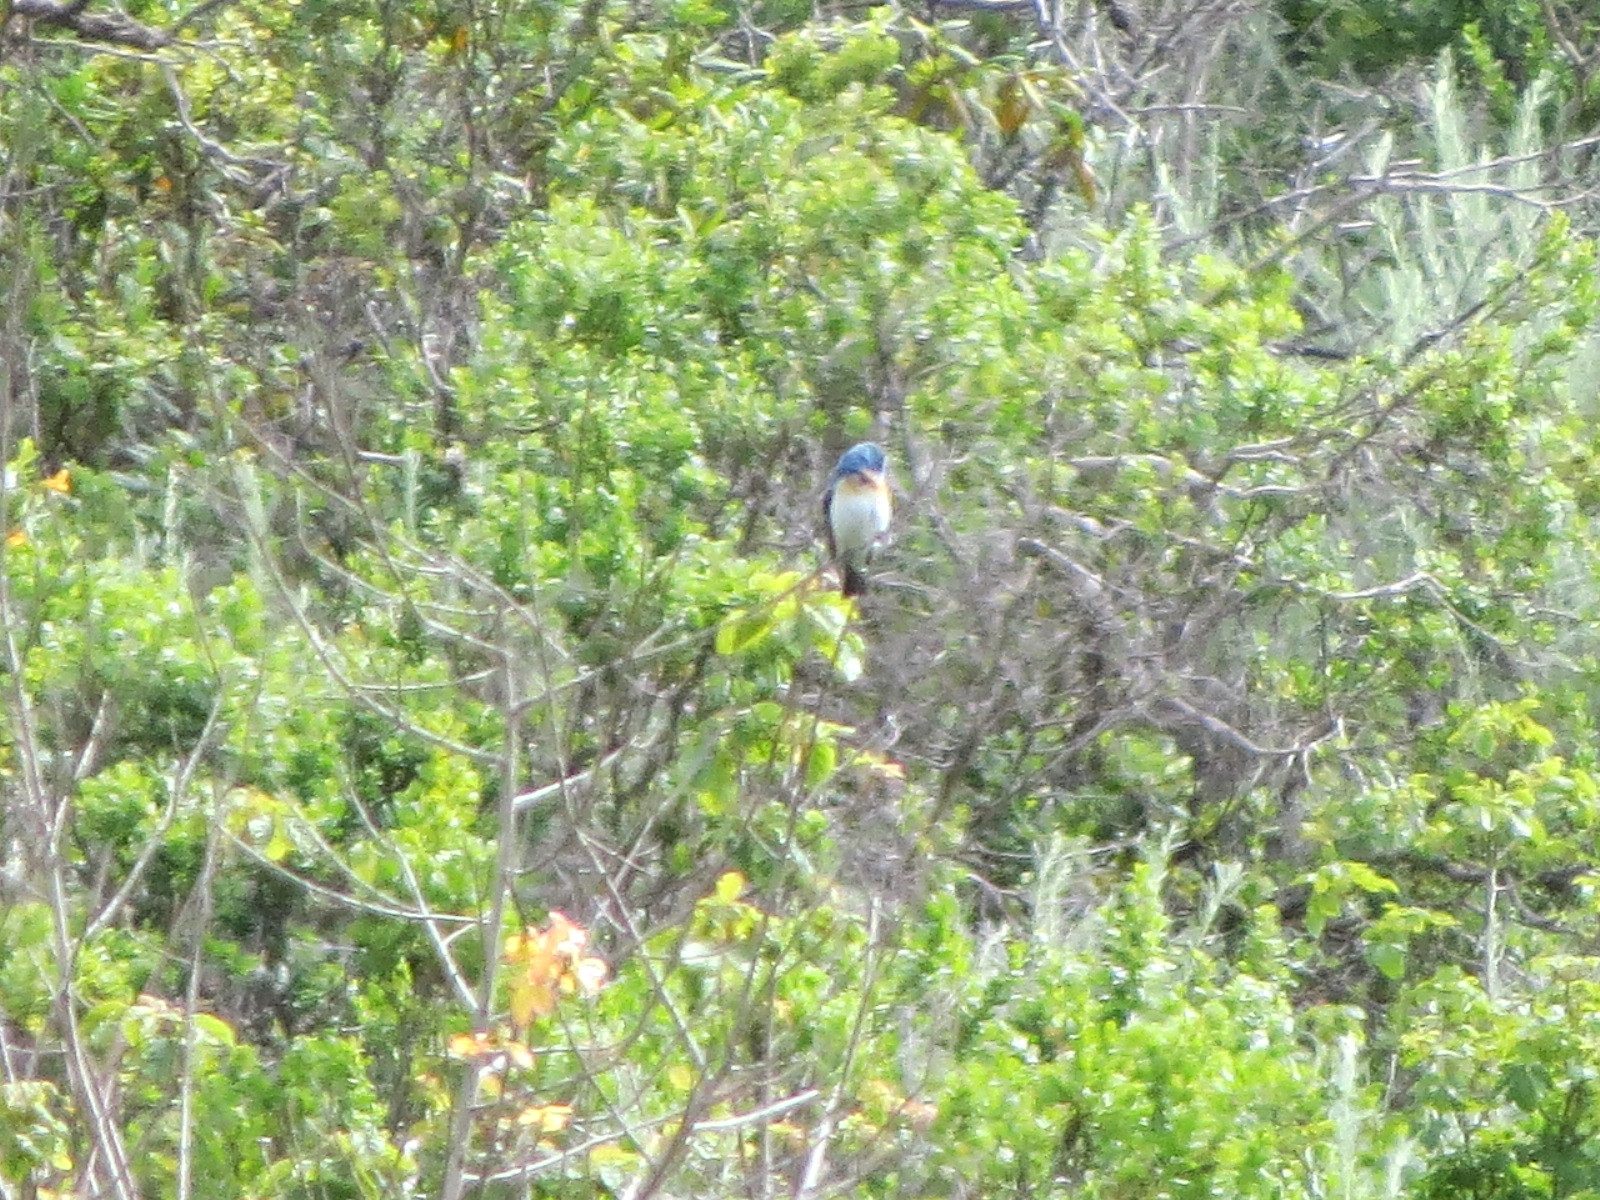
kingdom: Animalia
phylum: Chordata
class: Aves
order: Passeriformes
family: Cardinalidae
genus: Passerina
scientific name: Passerina amoena
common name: Lazuli bunting
